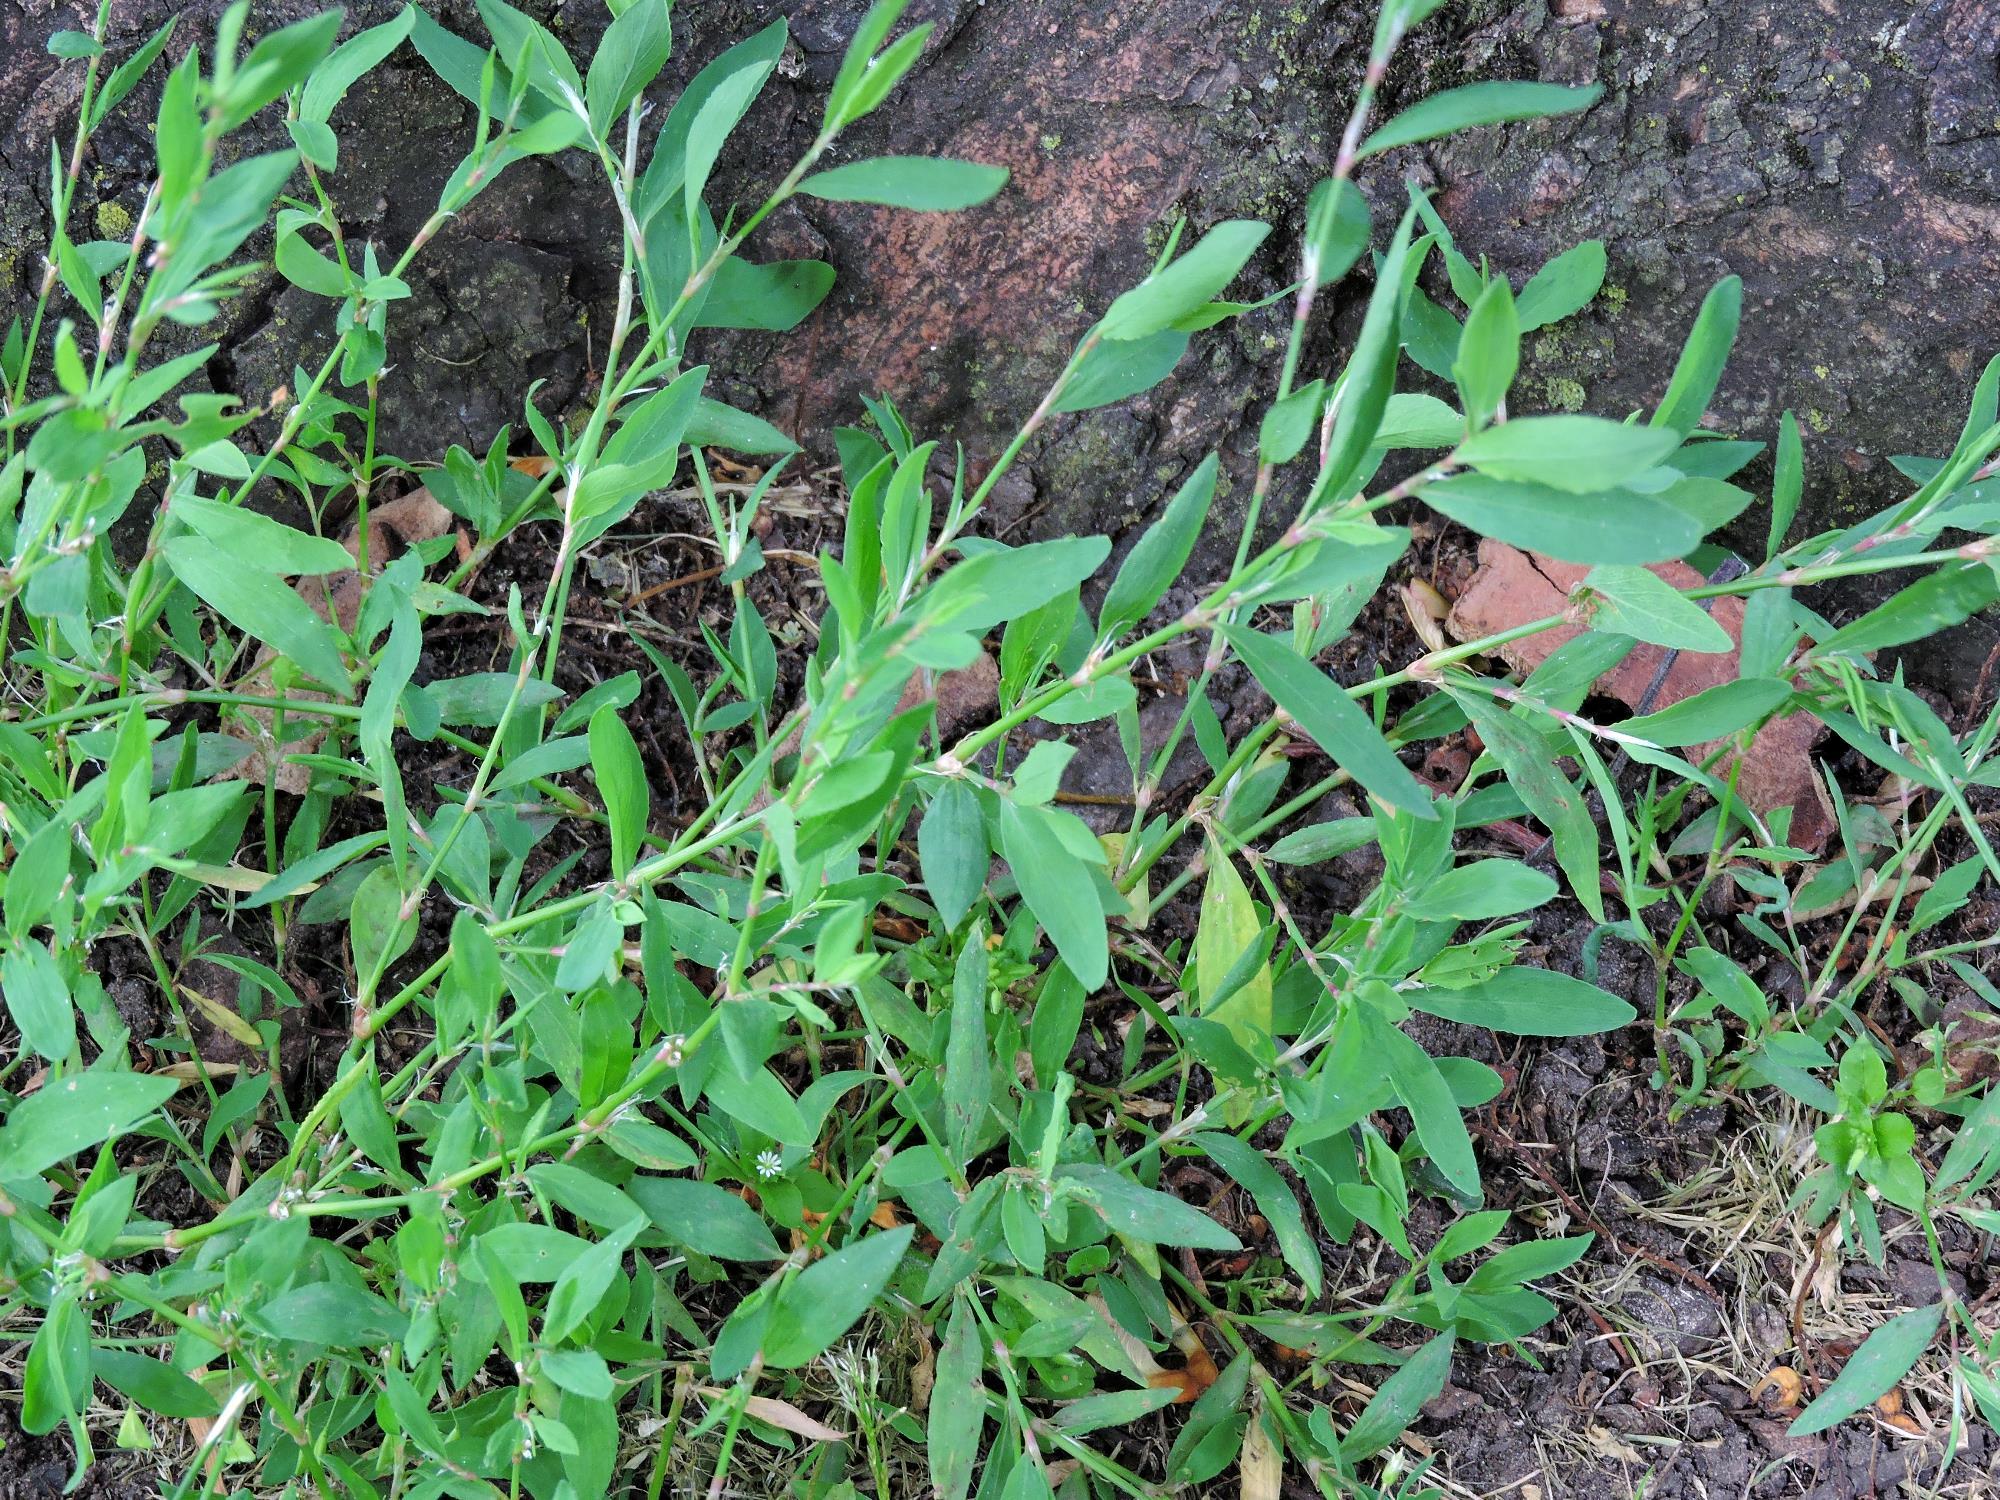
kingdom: Plantae
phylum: Tracheophyta
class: Magnoliopsida
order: Caryophyllales
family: Polygonaceae
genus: Polygonum
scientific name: Polygonum aviculare
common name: Prostrate knotweed
